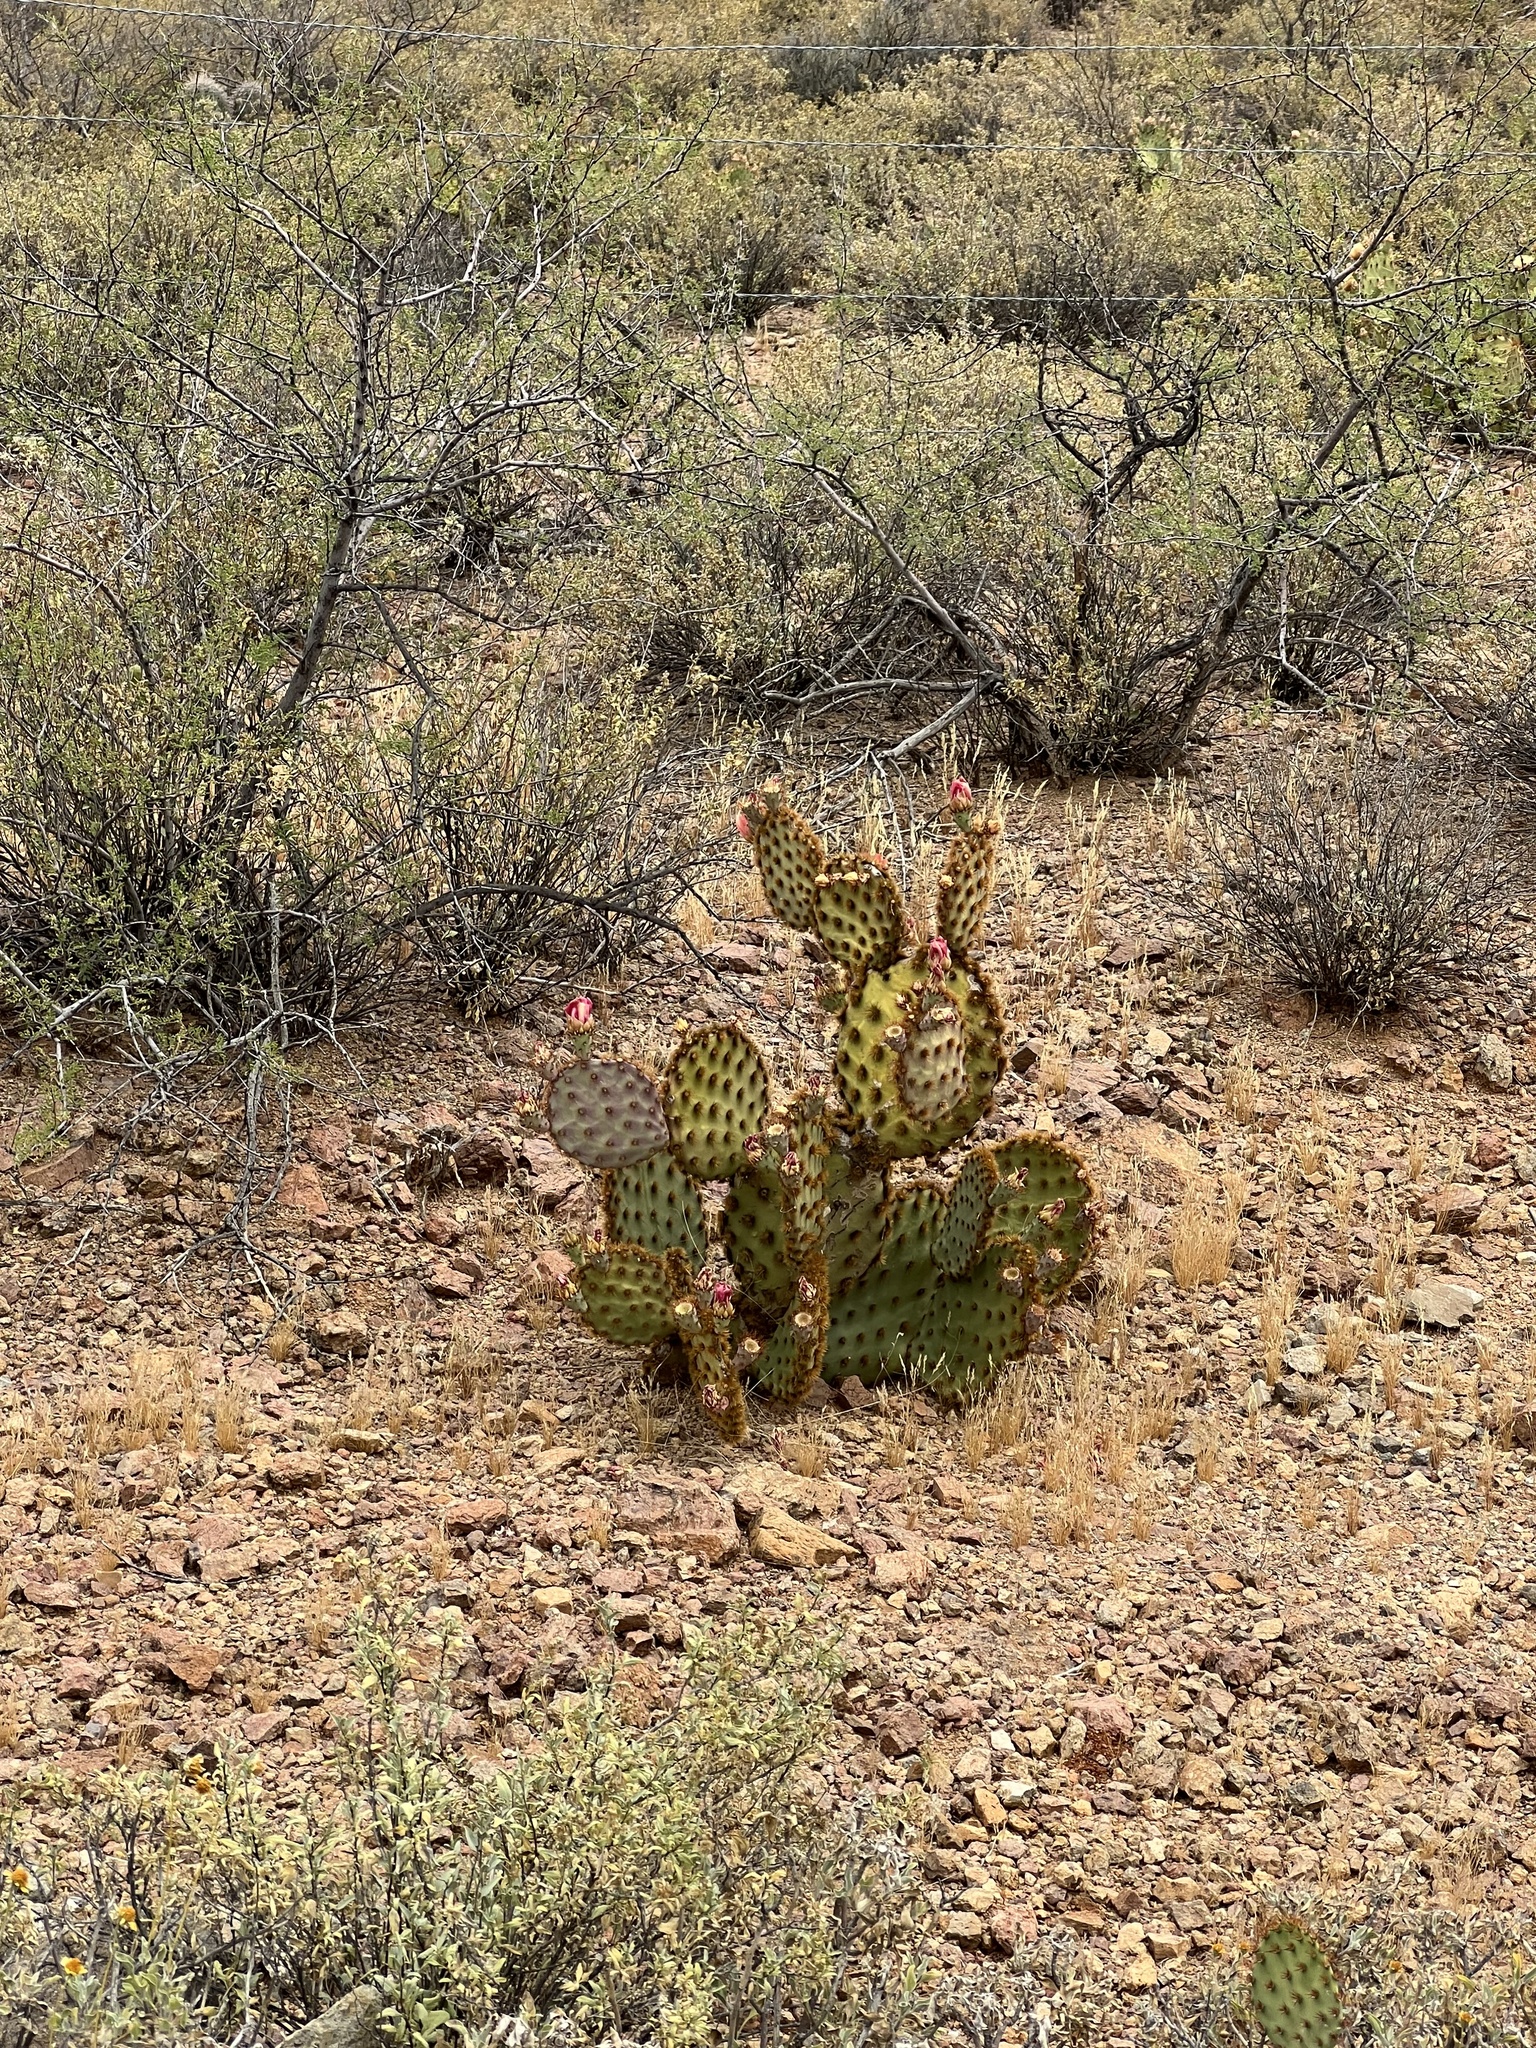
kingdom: Plantae
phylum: Tracheophyta
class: Magnoliopsida
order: Caryophyllales
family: Cactaceae
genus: Opuntia
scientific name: Opuntia chlorotica
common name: Dollar-joint prickly-pear
